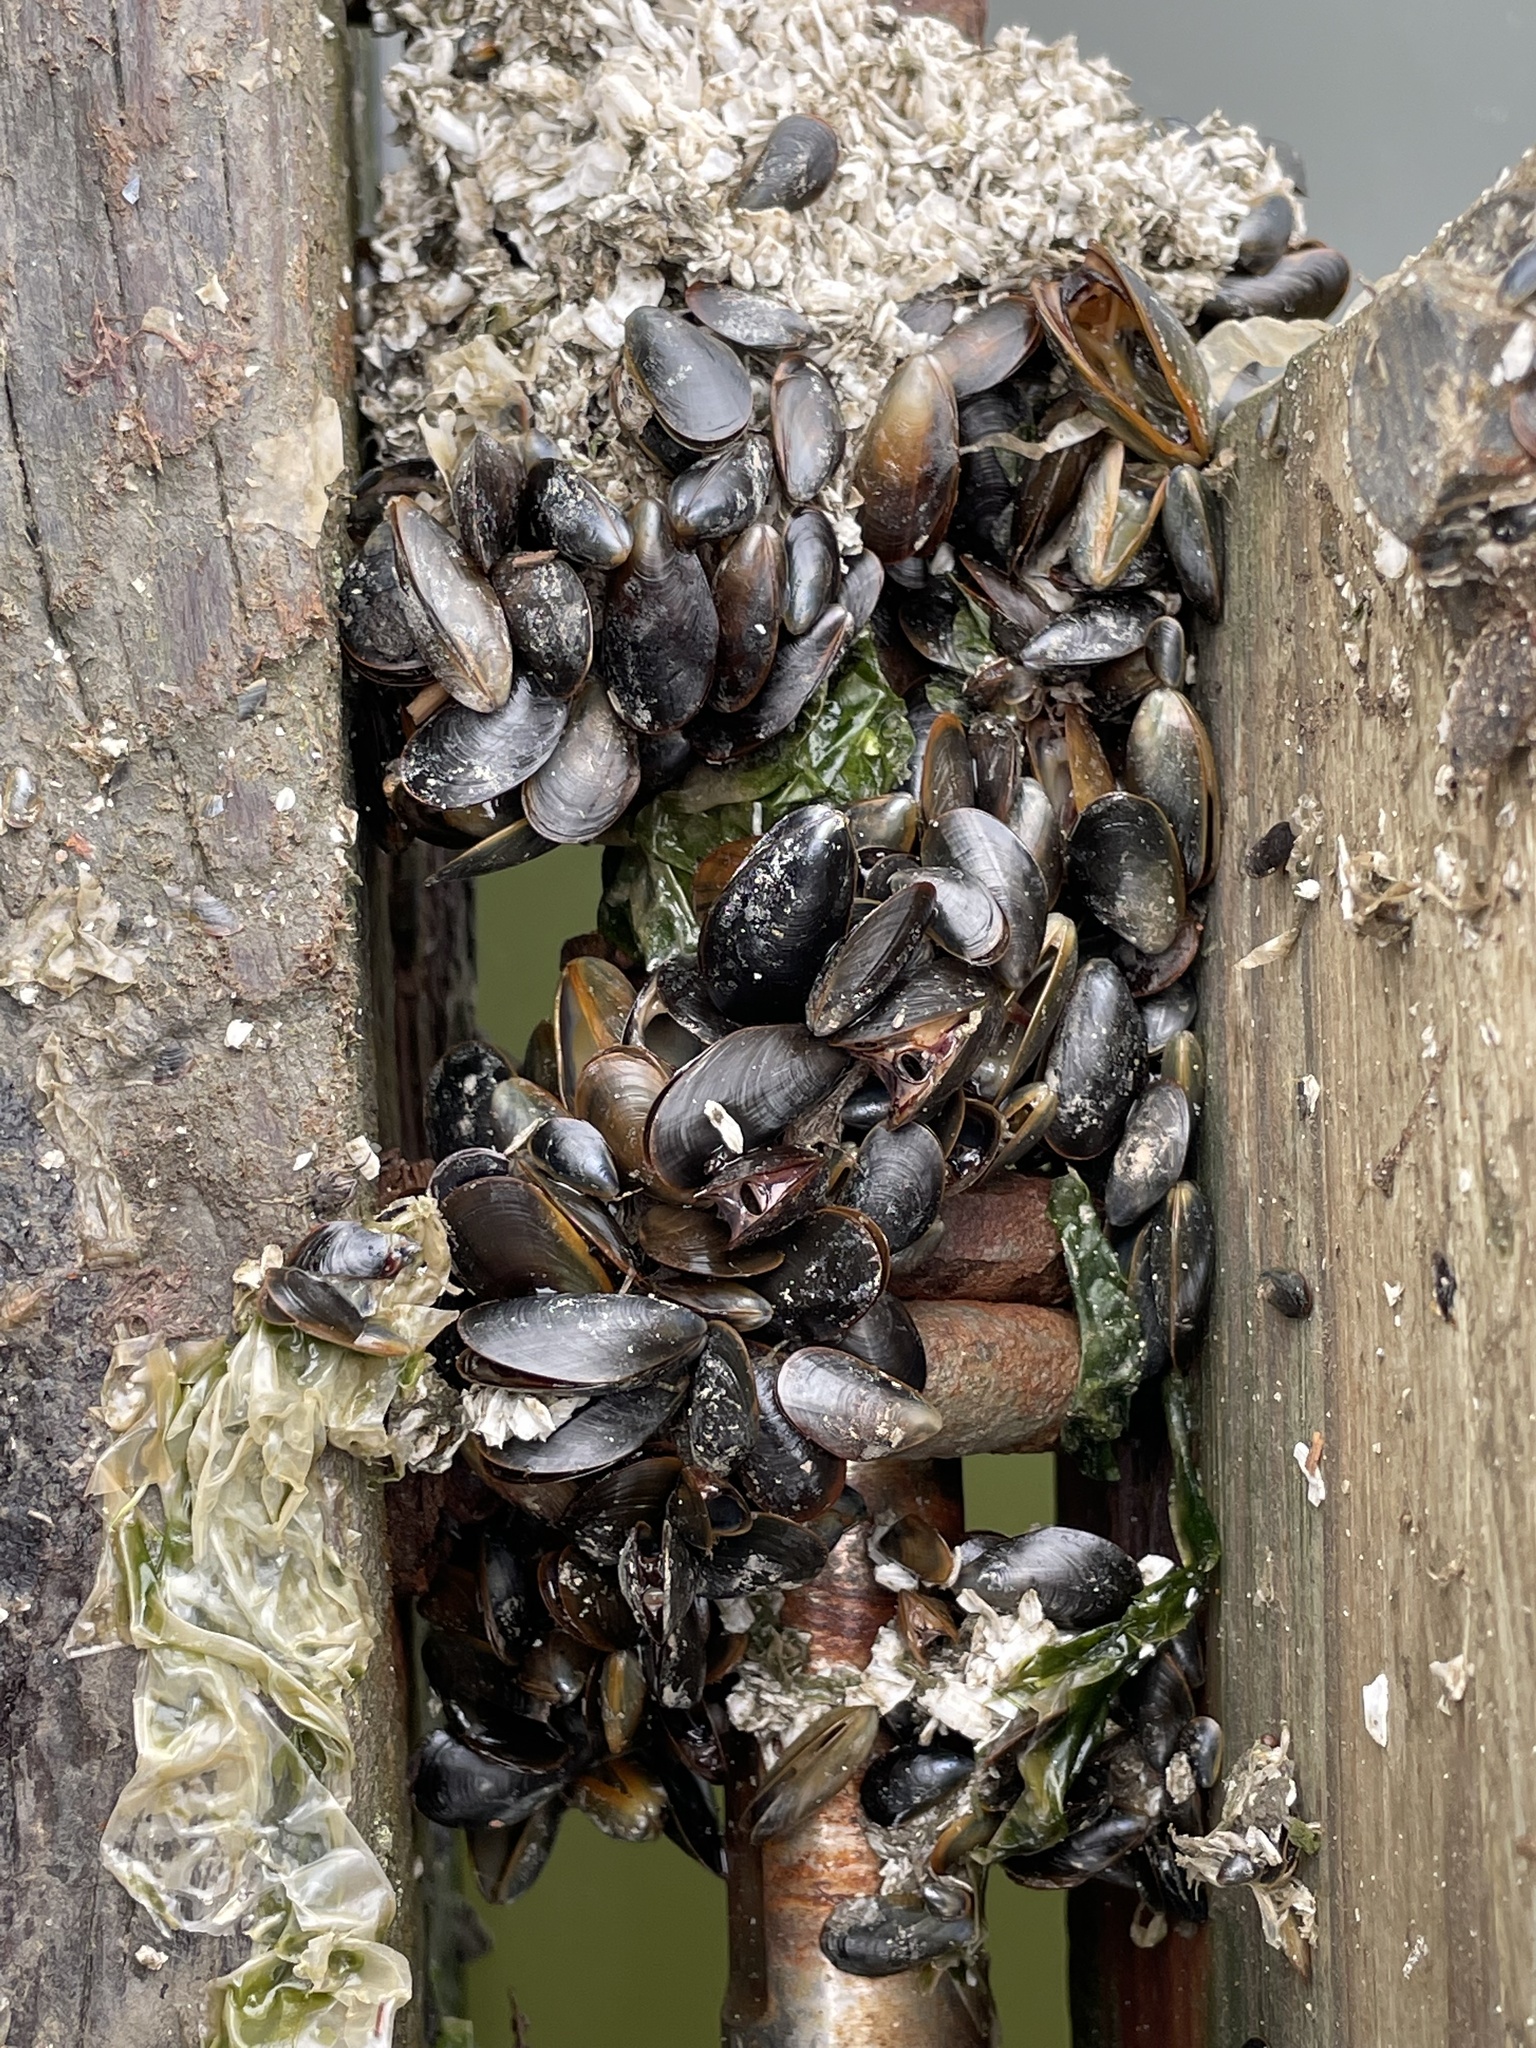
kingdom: Animalia
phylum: Mollusca
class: Bivalvia
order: Mytilida
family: Mytilidae
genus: Mytilus
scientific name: Mytilus edulis
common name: Blue mussel
